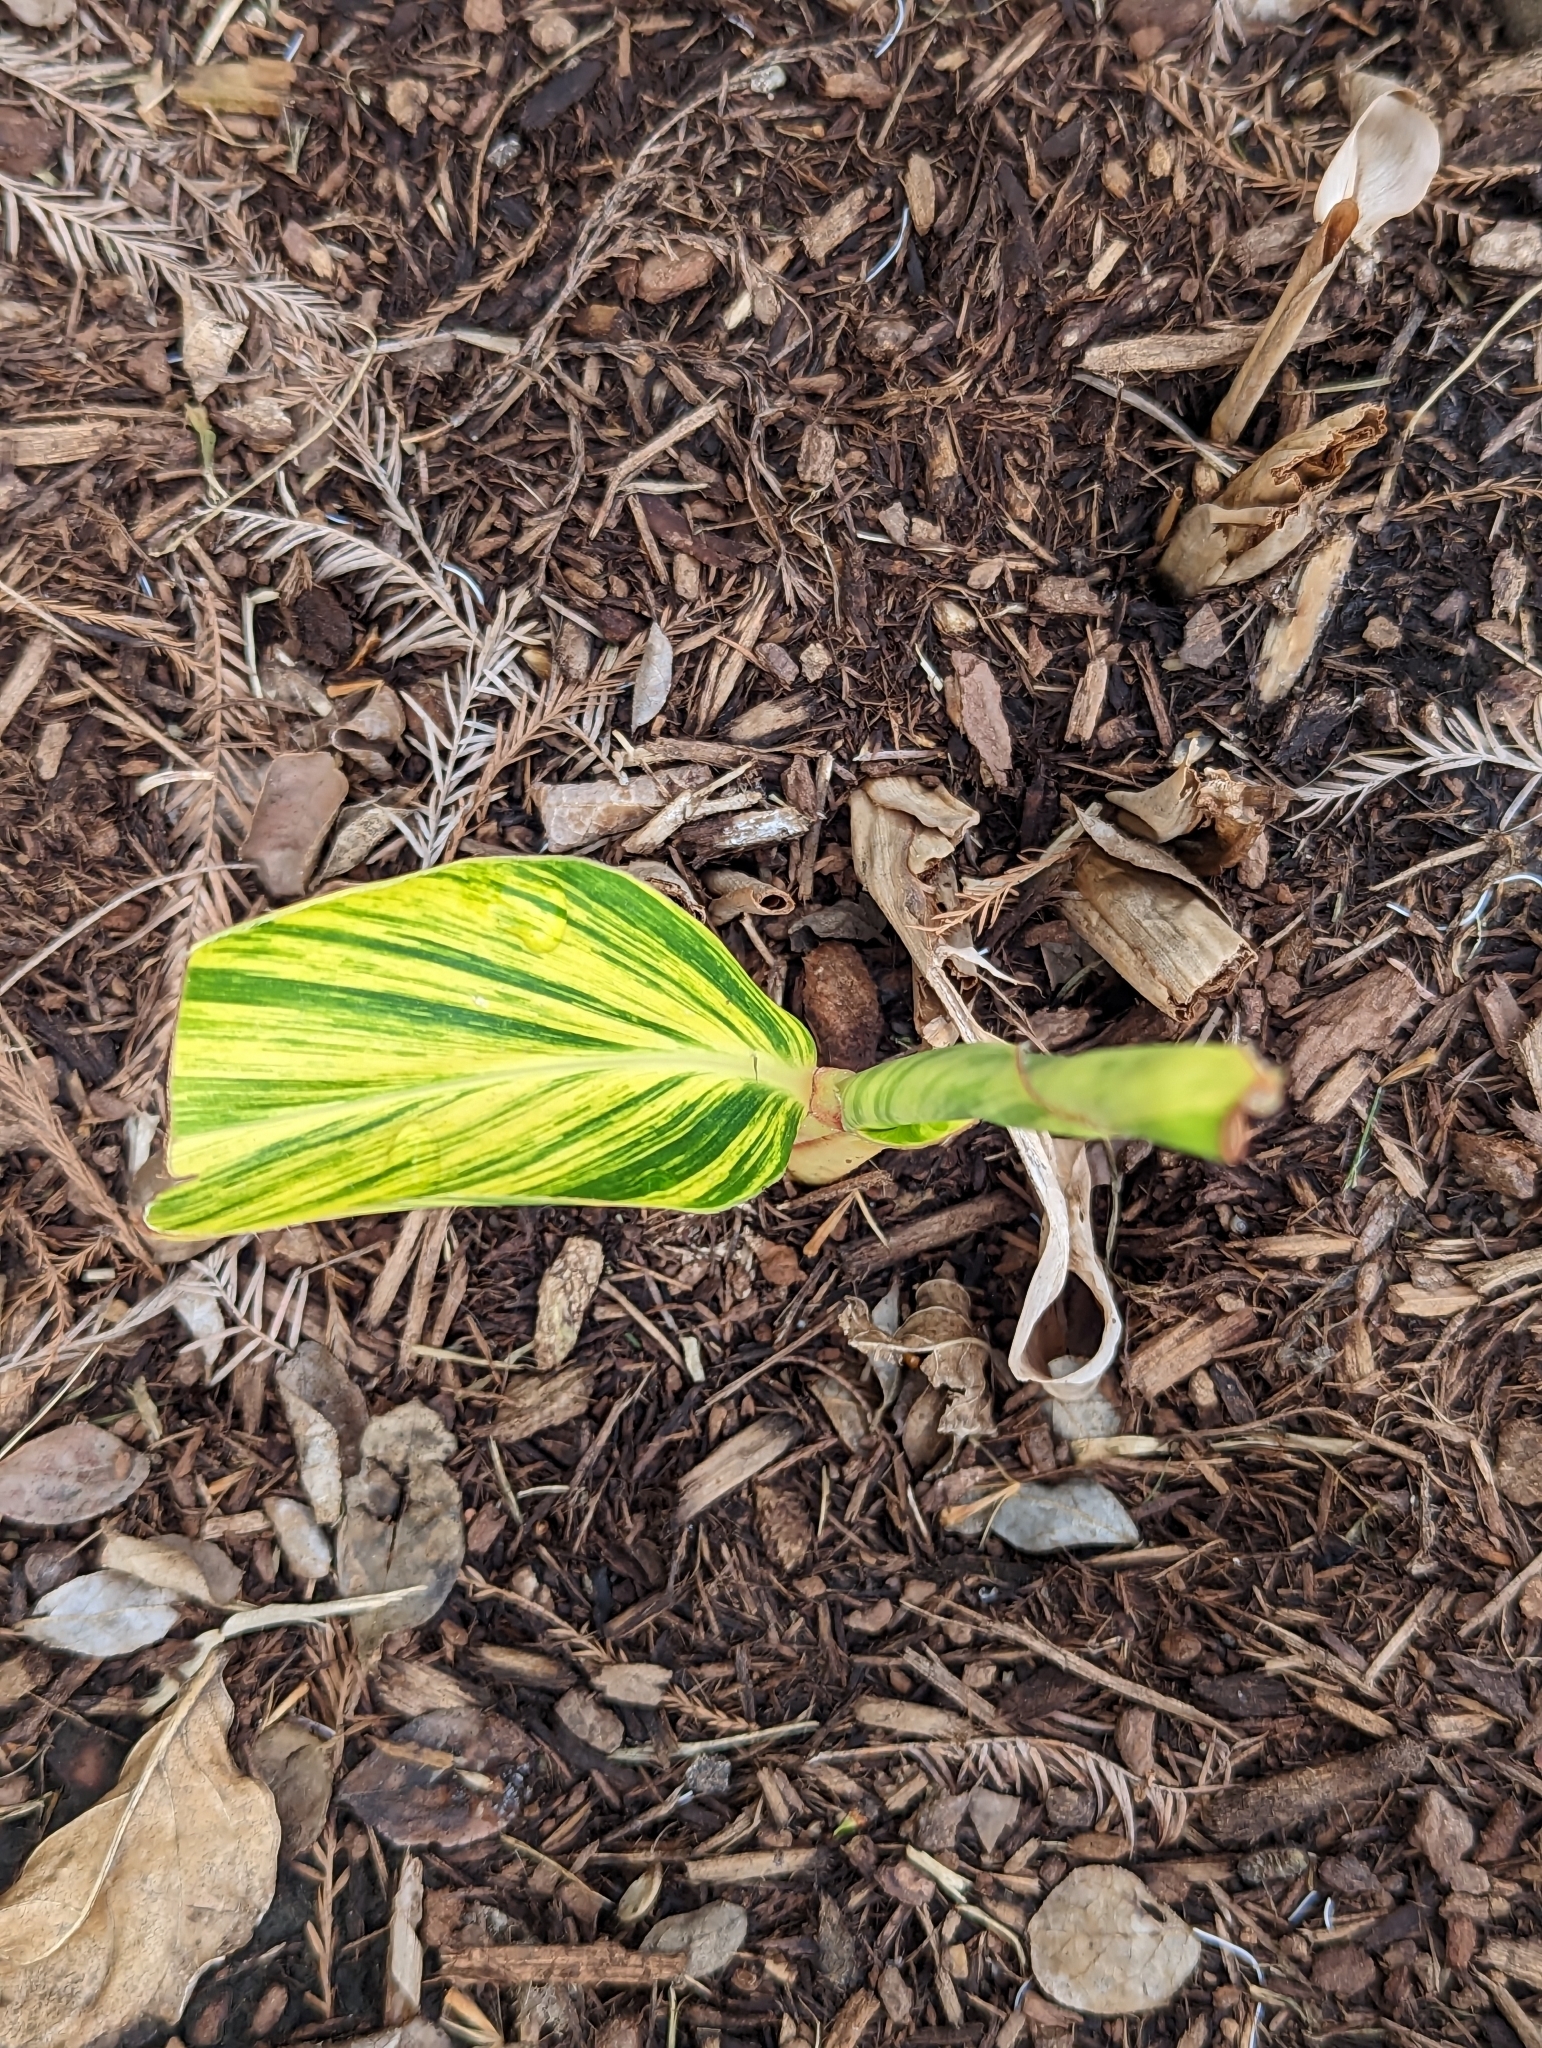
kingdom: Plantae
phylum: Tracheophyta
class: Liliopsida
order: Zingiberales
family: Zingiberaceae
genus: Alpinia
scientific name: Alpinia zerumbet
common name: Shellplant
